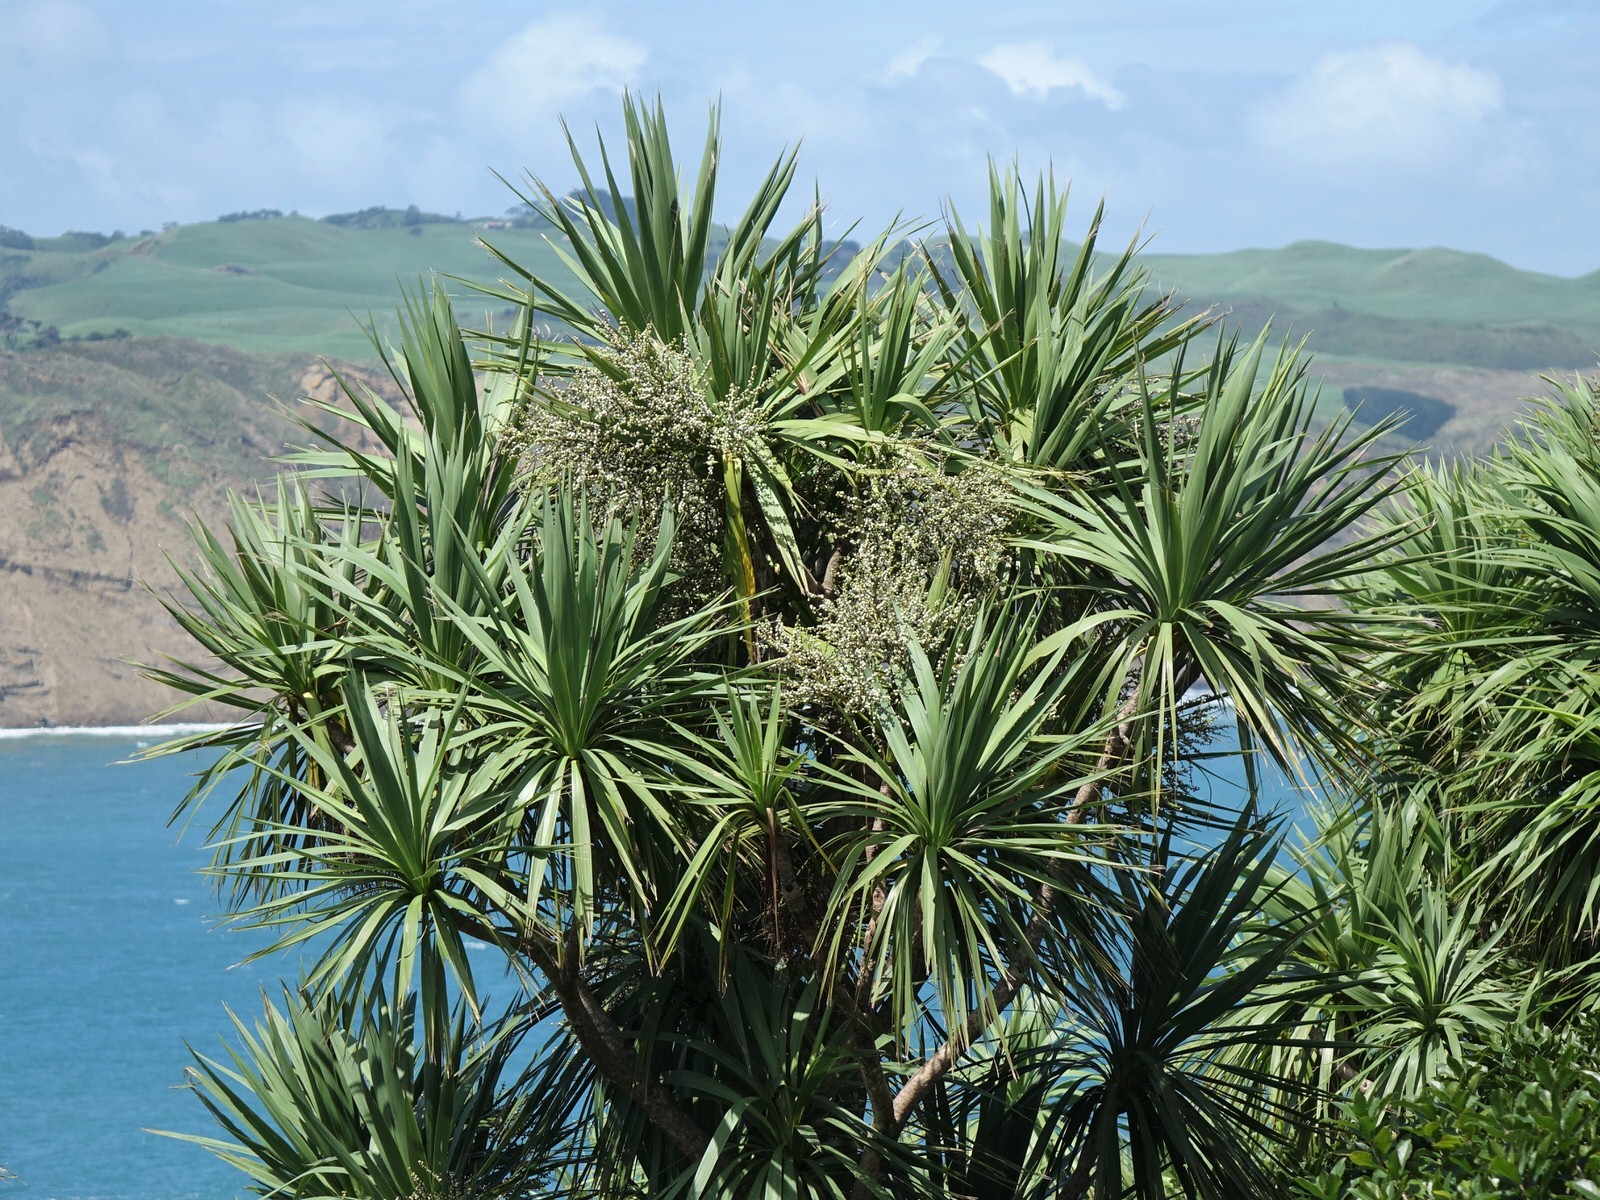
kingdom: Plantae
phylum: Tracheophyta
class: Liliopsida
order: Asparagales
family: Asparagaceae
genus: Cordyline
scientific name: Cordyline australis
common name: Cabbage-palm
